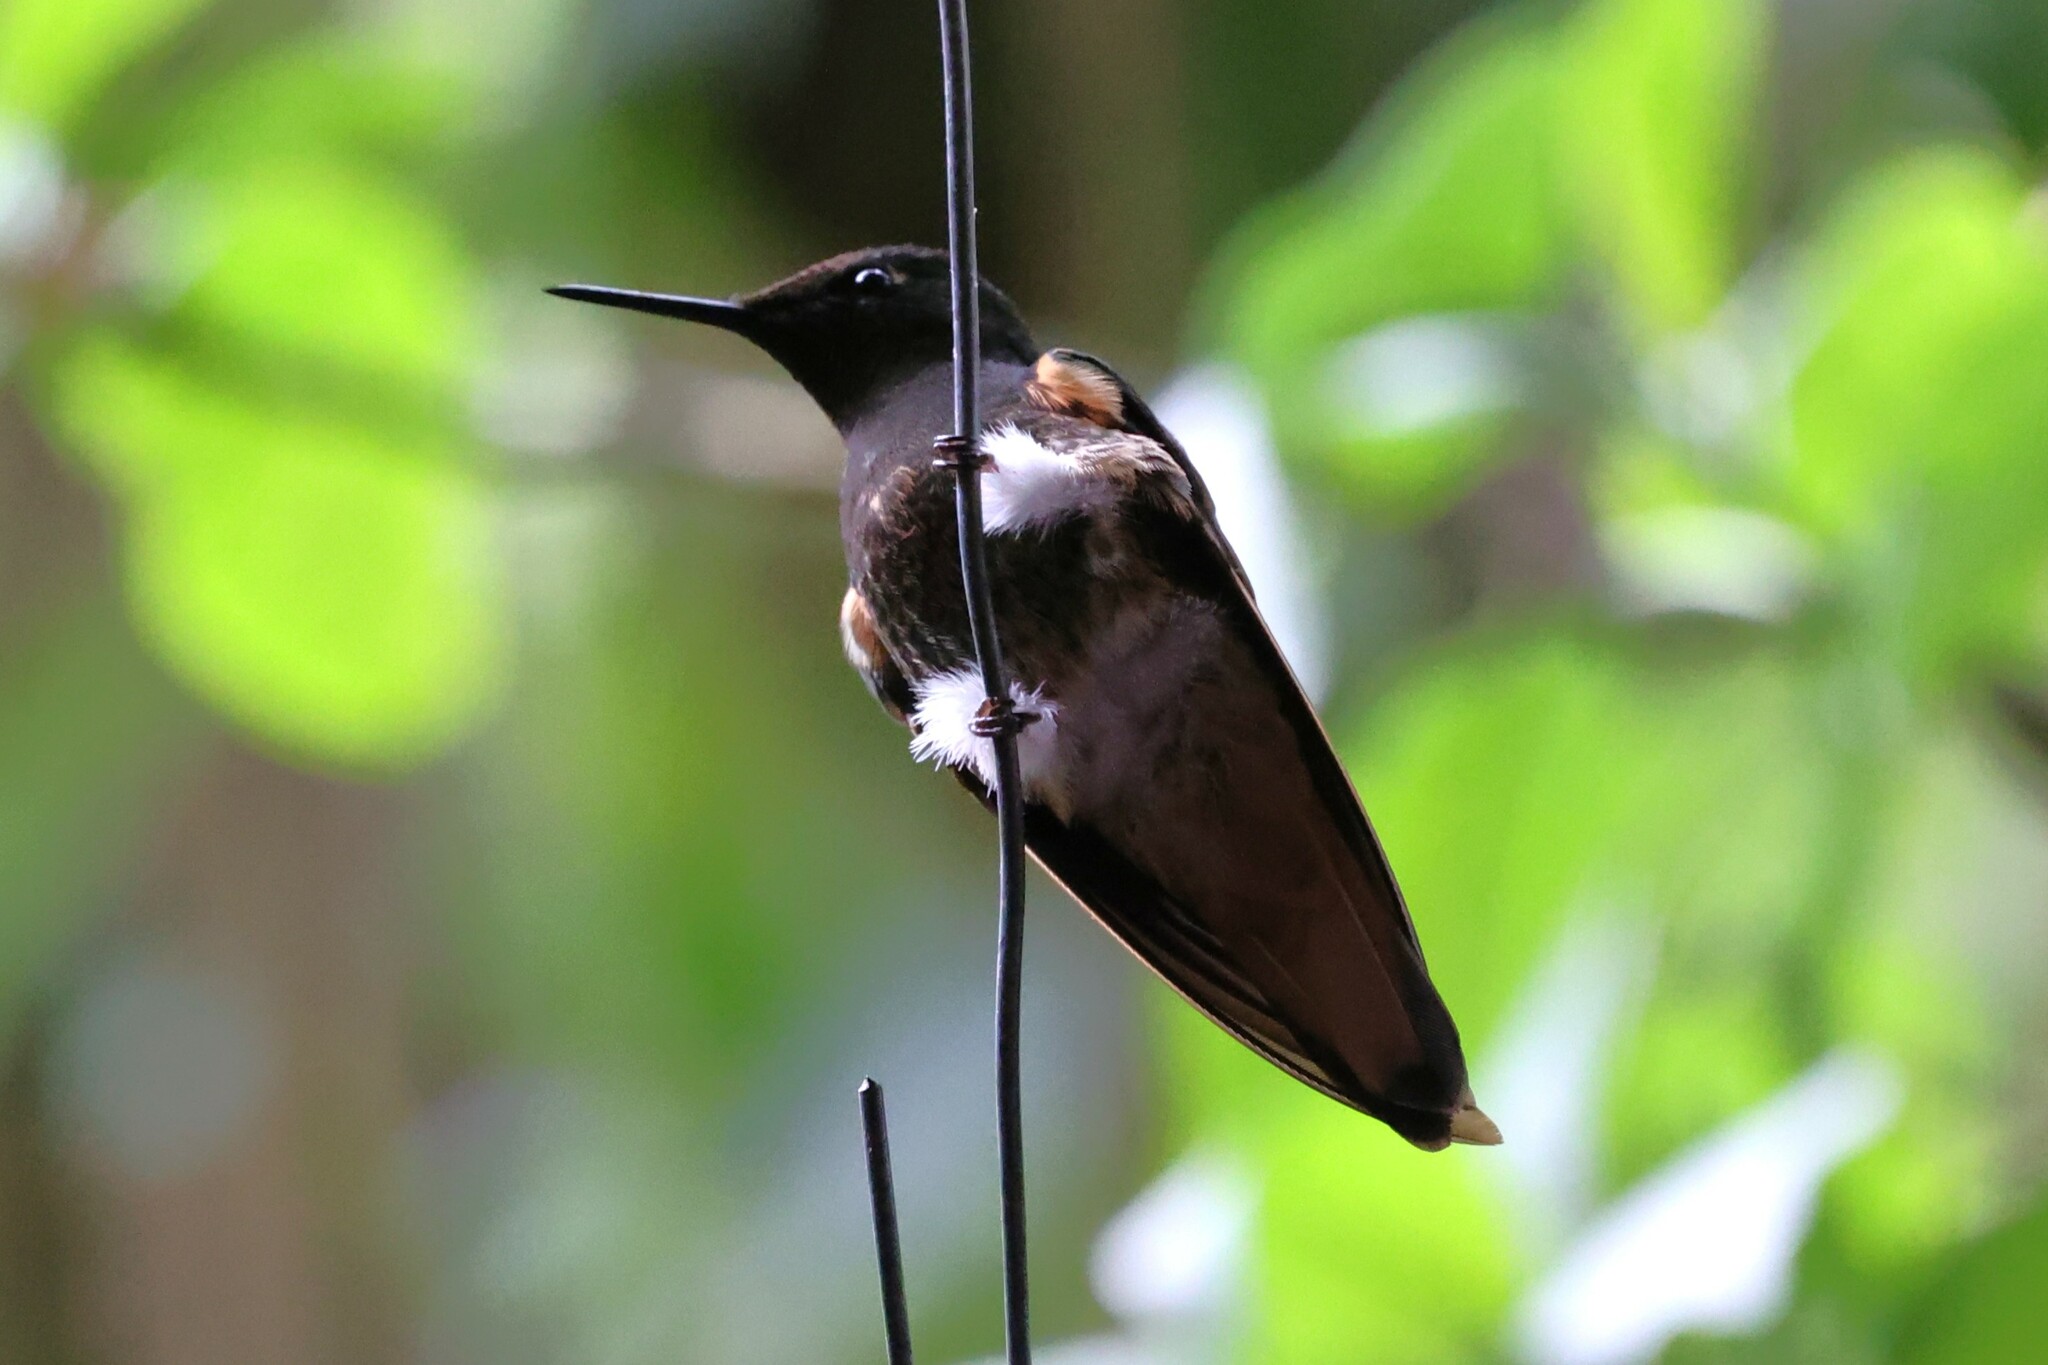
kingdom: Animalia
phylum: Chordata
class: Aves
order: Apodiformes
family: Trochilidae
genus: Boissonneaua
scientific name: Boissonneaua flavescens
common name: Buff-tailed coronet
